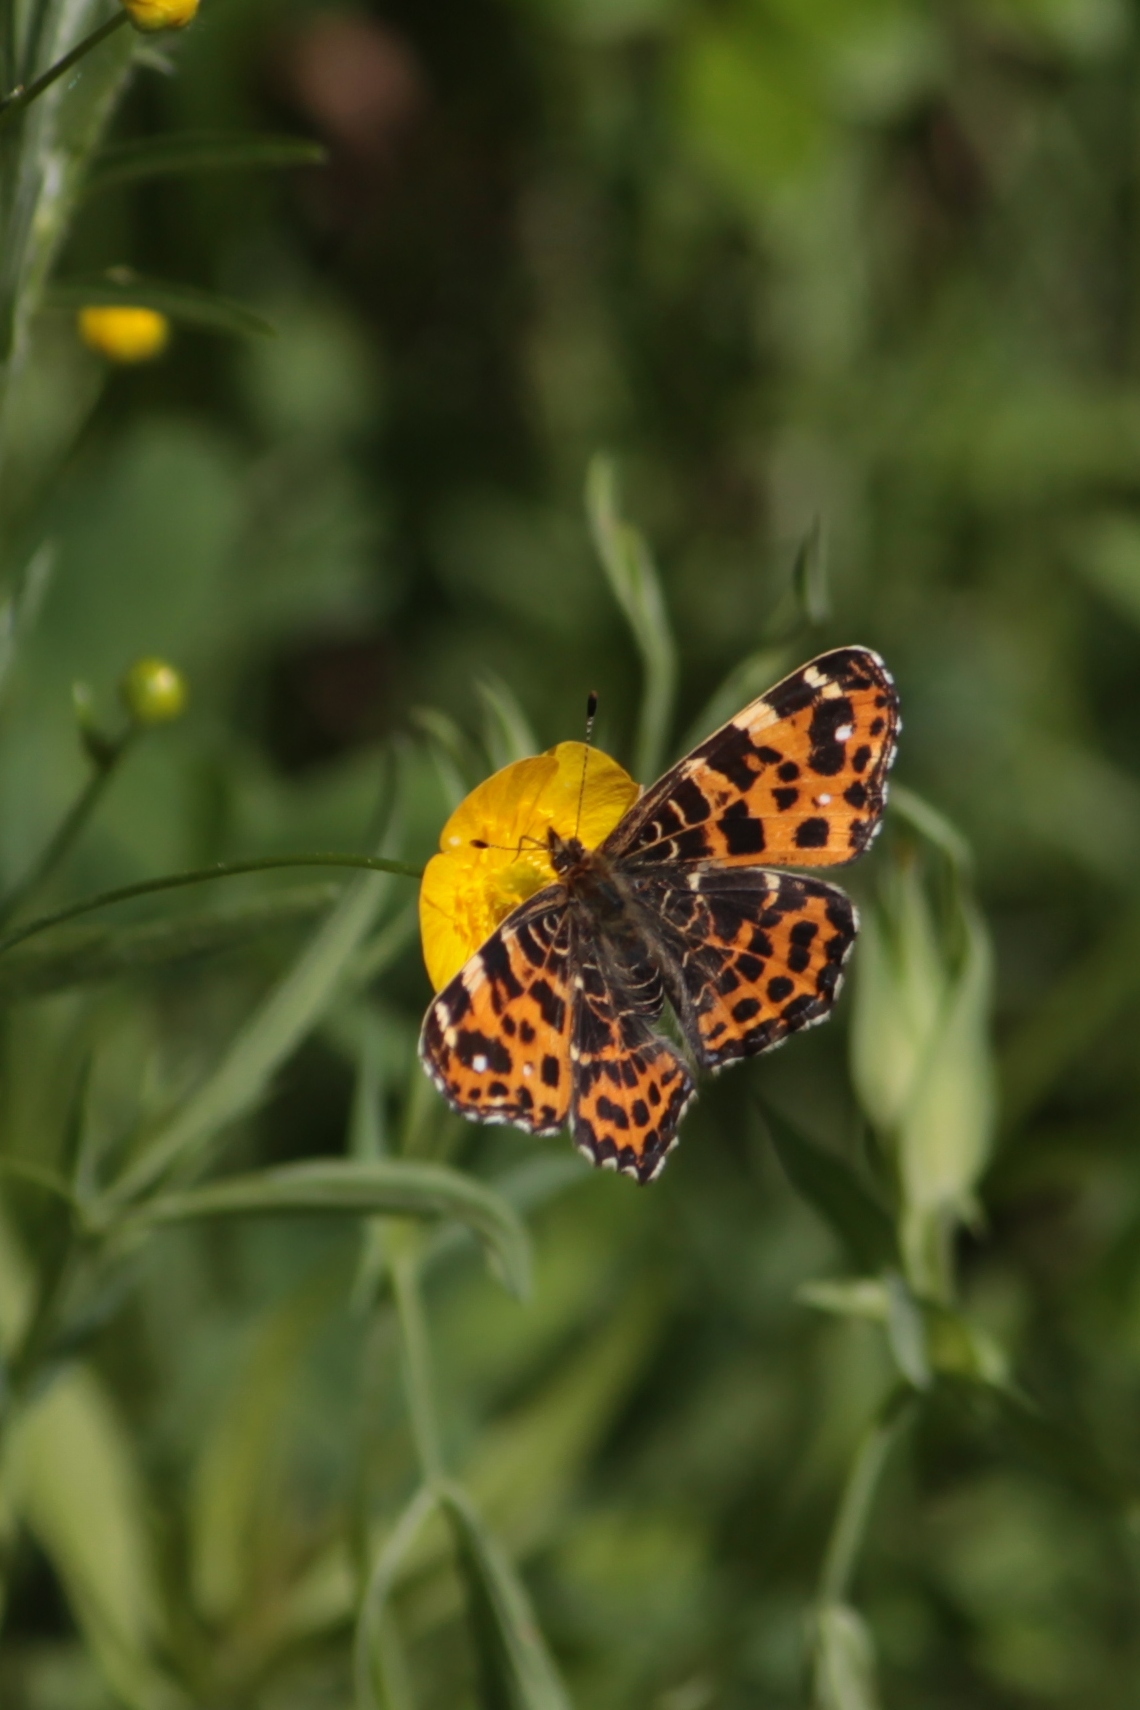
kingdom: Animalia
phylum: Arthropoda
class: Insecta
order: Lepidoptera
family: Nymphalidae
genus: Araschnia
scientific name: Araschnia levana
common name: Map butterfly
